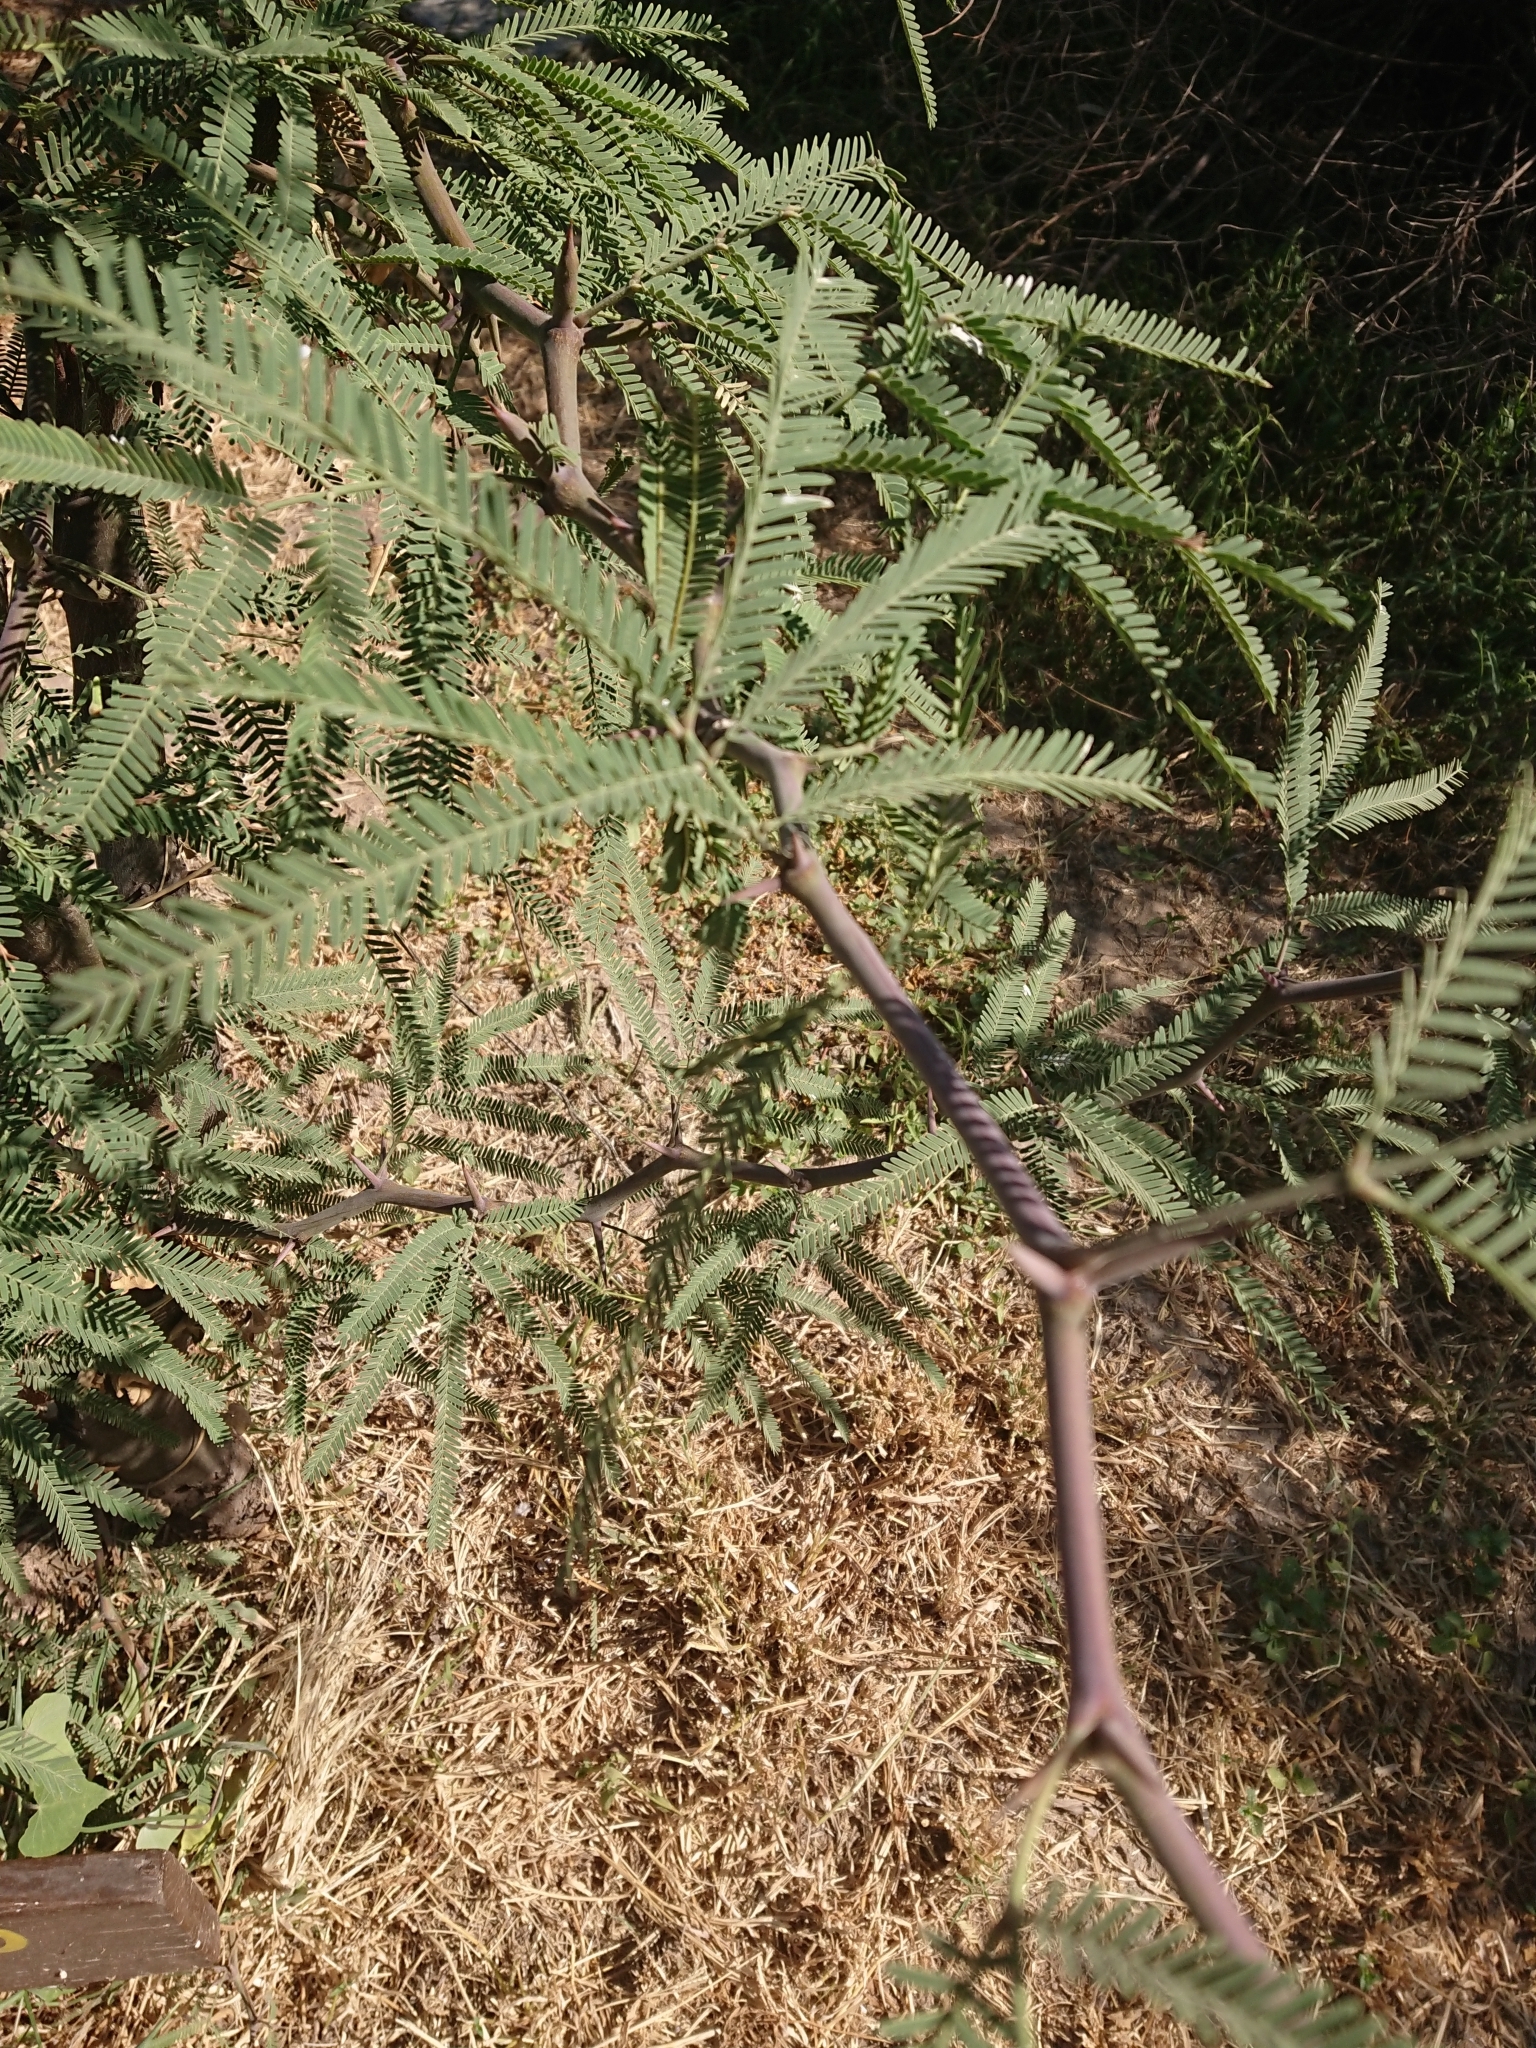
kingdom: Plantae
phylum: Tracheophyta
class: Magnoliopsida
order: Fabales
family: Fabaceae
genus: Prosopis
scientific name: Prosopis alba
